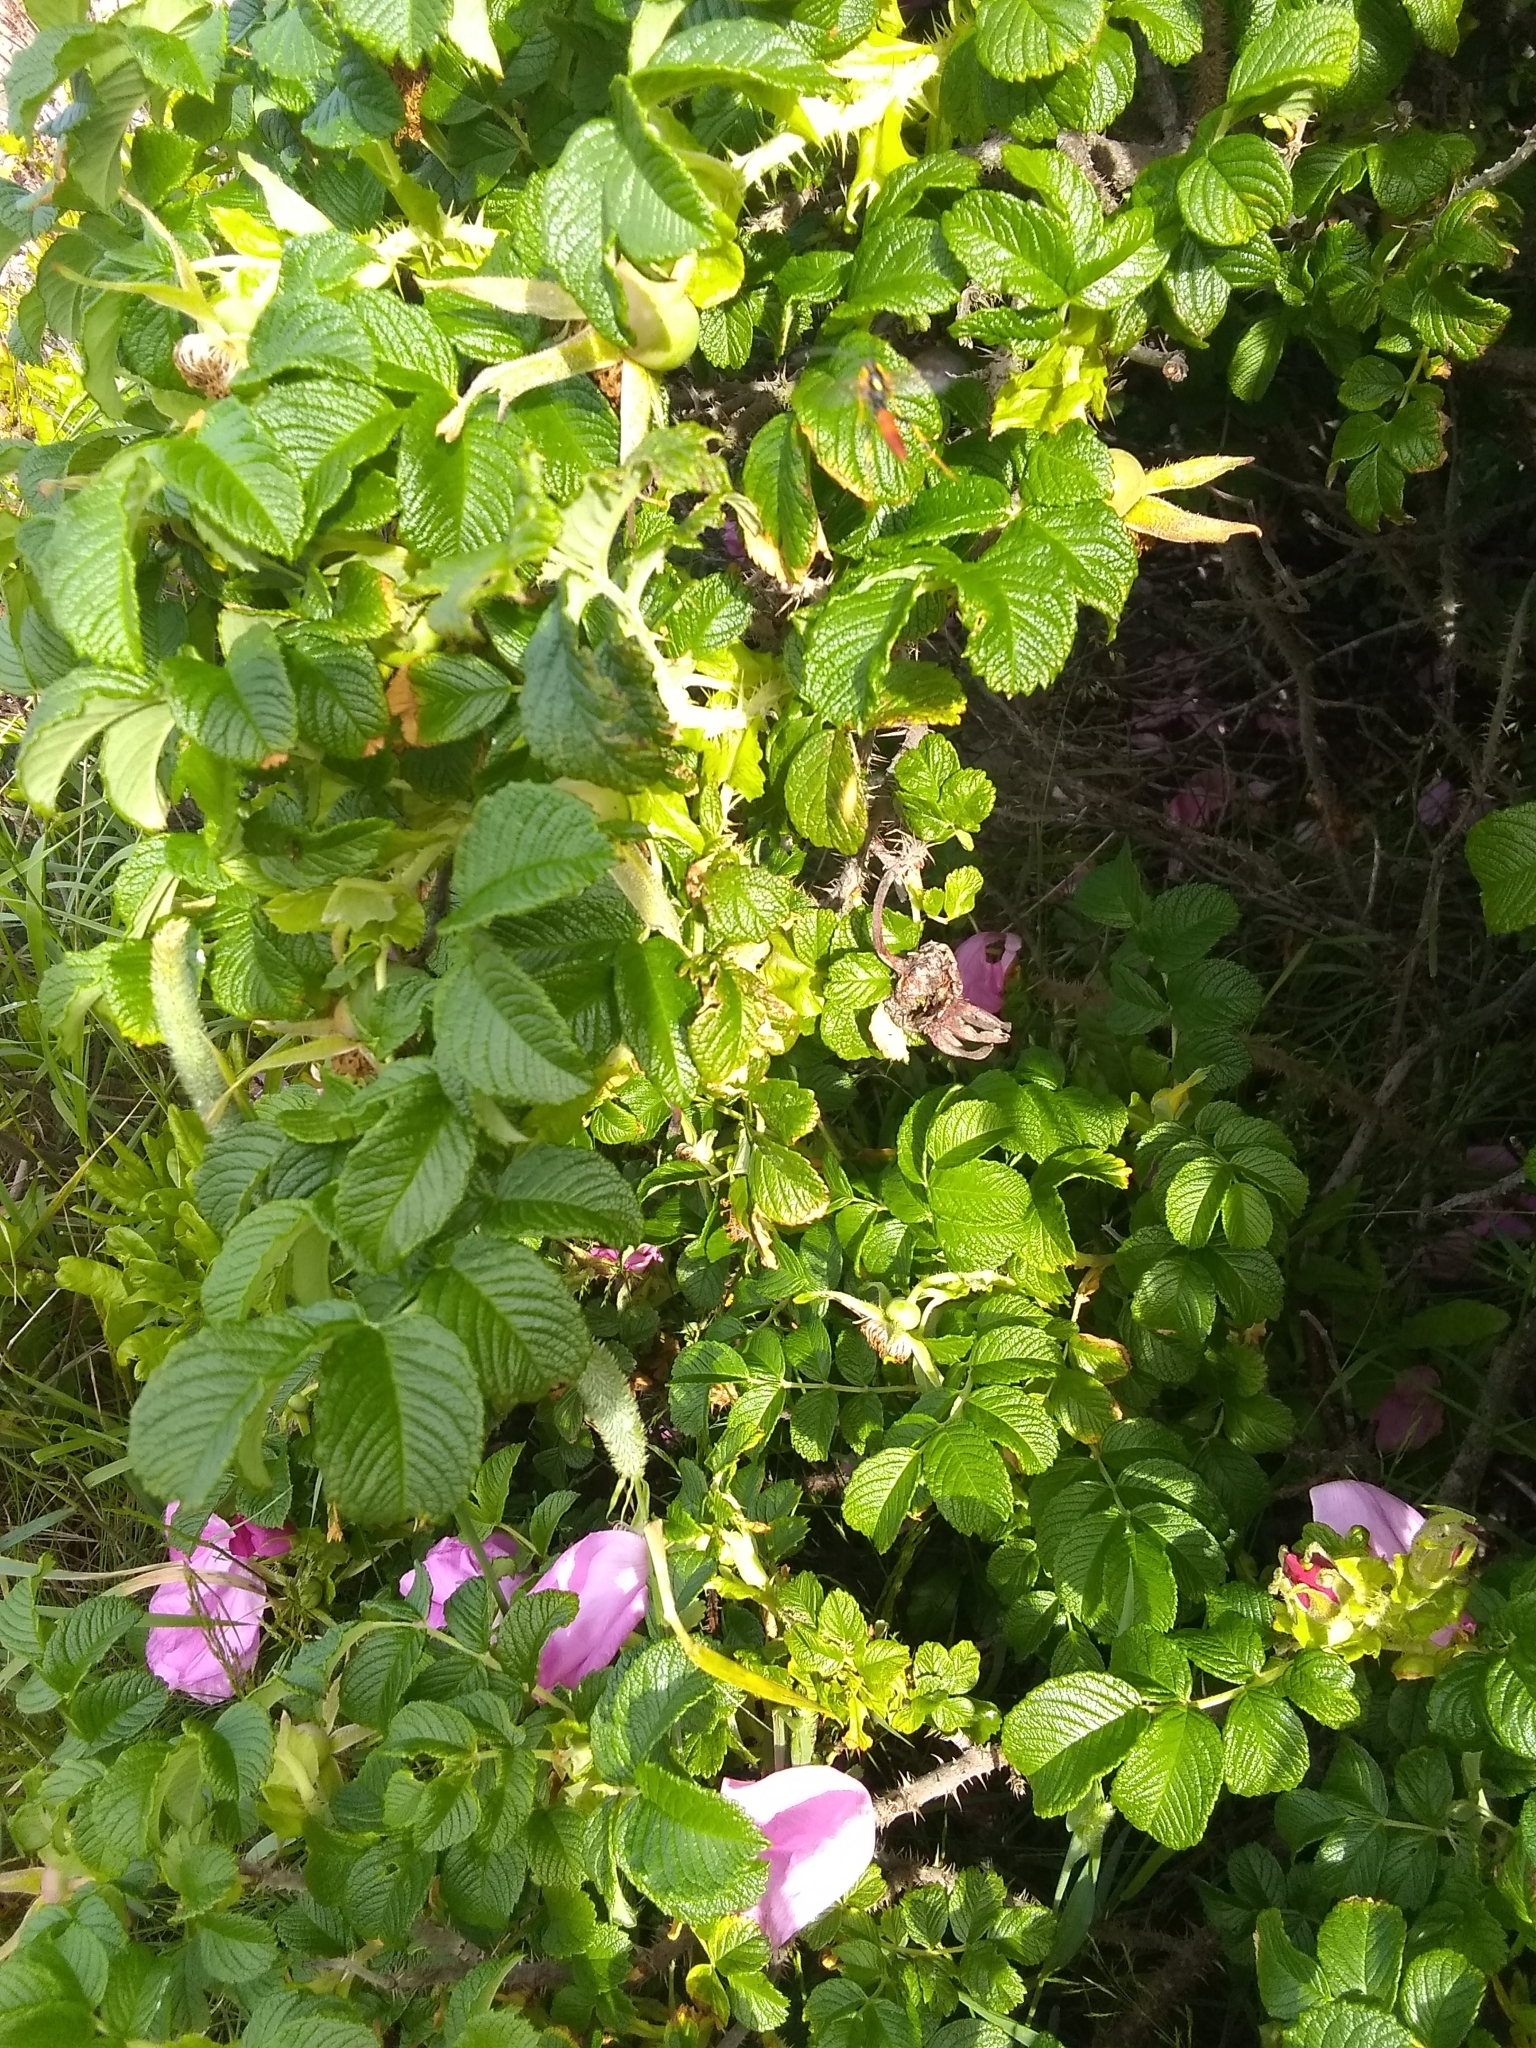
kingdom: Plantae
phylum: Tracheophyta
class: Magnoliopsida
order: Rosales
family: Rosaceae
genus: Rosa
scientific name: Rosa rugosa
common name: Japanese rose
